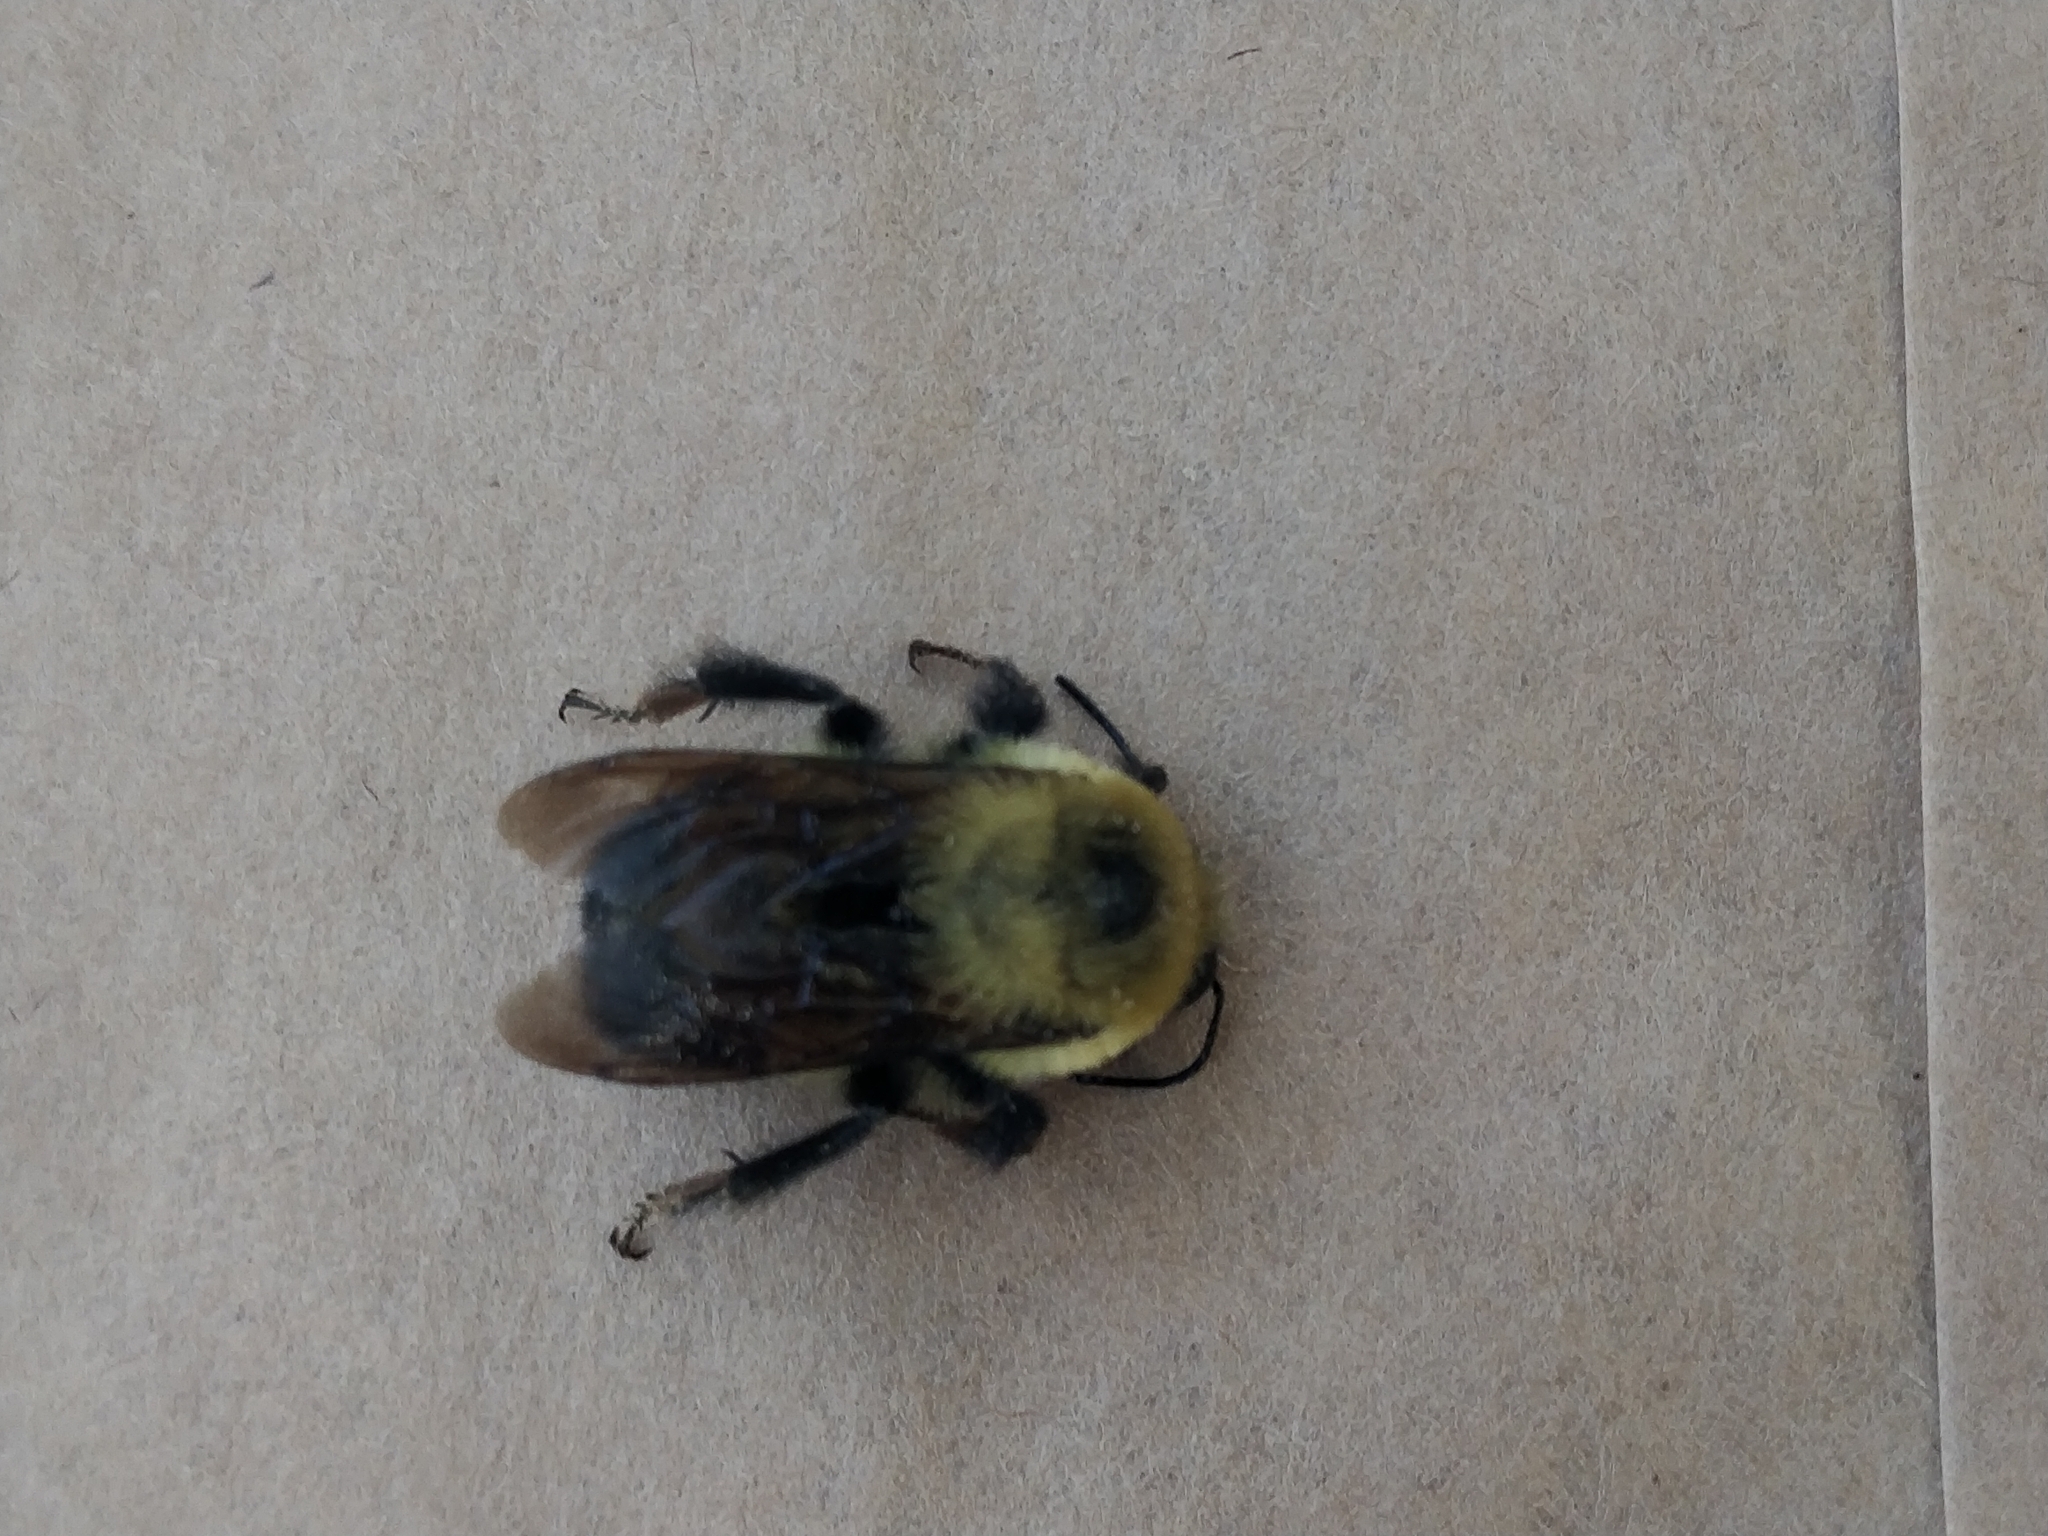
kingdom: Animalia
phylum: Arthropoda
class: Insecta
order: Hymenoptera
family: Apidae
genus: Bombus
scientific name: Bombus griseocollis
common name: Brown-belted bumble bee
